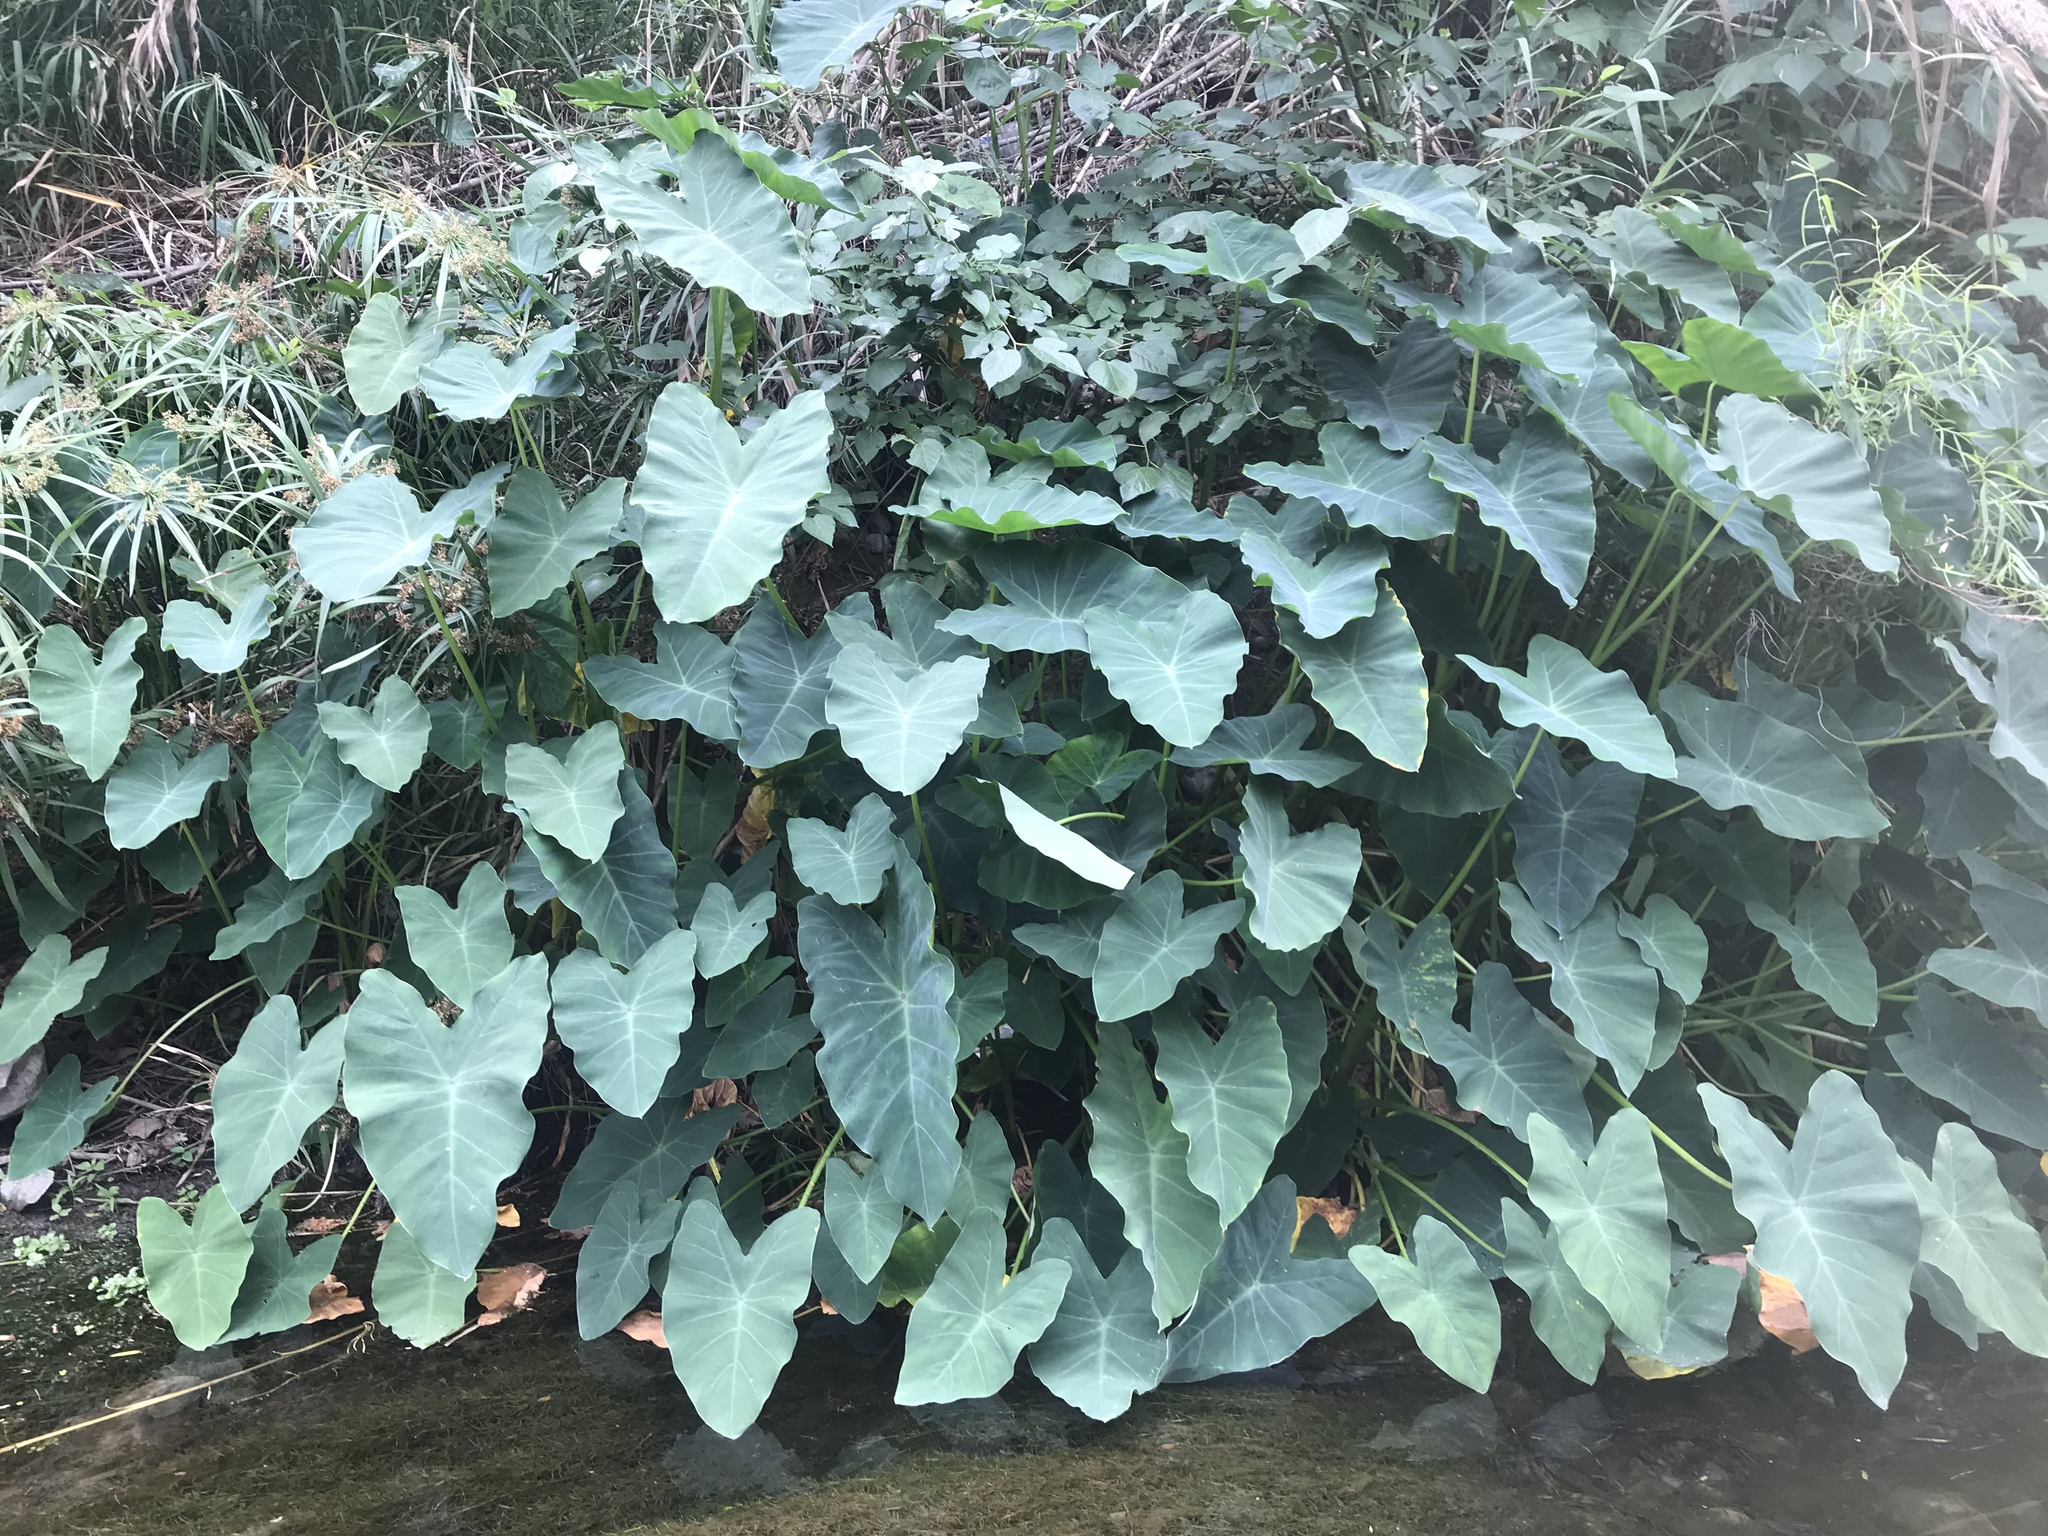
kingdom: Plantae
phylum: Tracheophyta
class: Liliopsida
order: Alismatales
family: Araceae
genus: Colocasia
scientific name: Colocasia esculenta
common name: Taro
